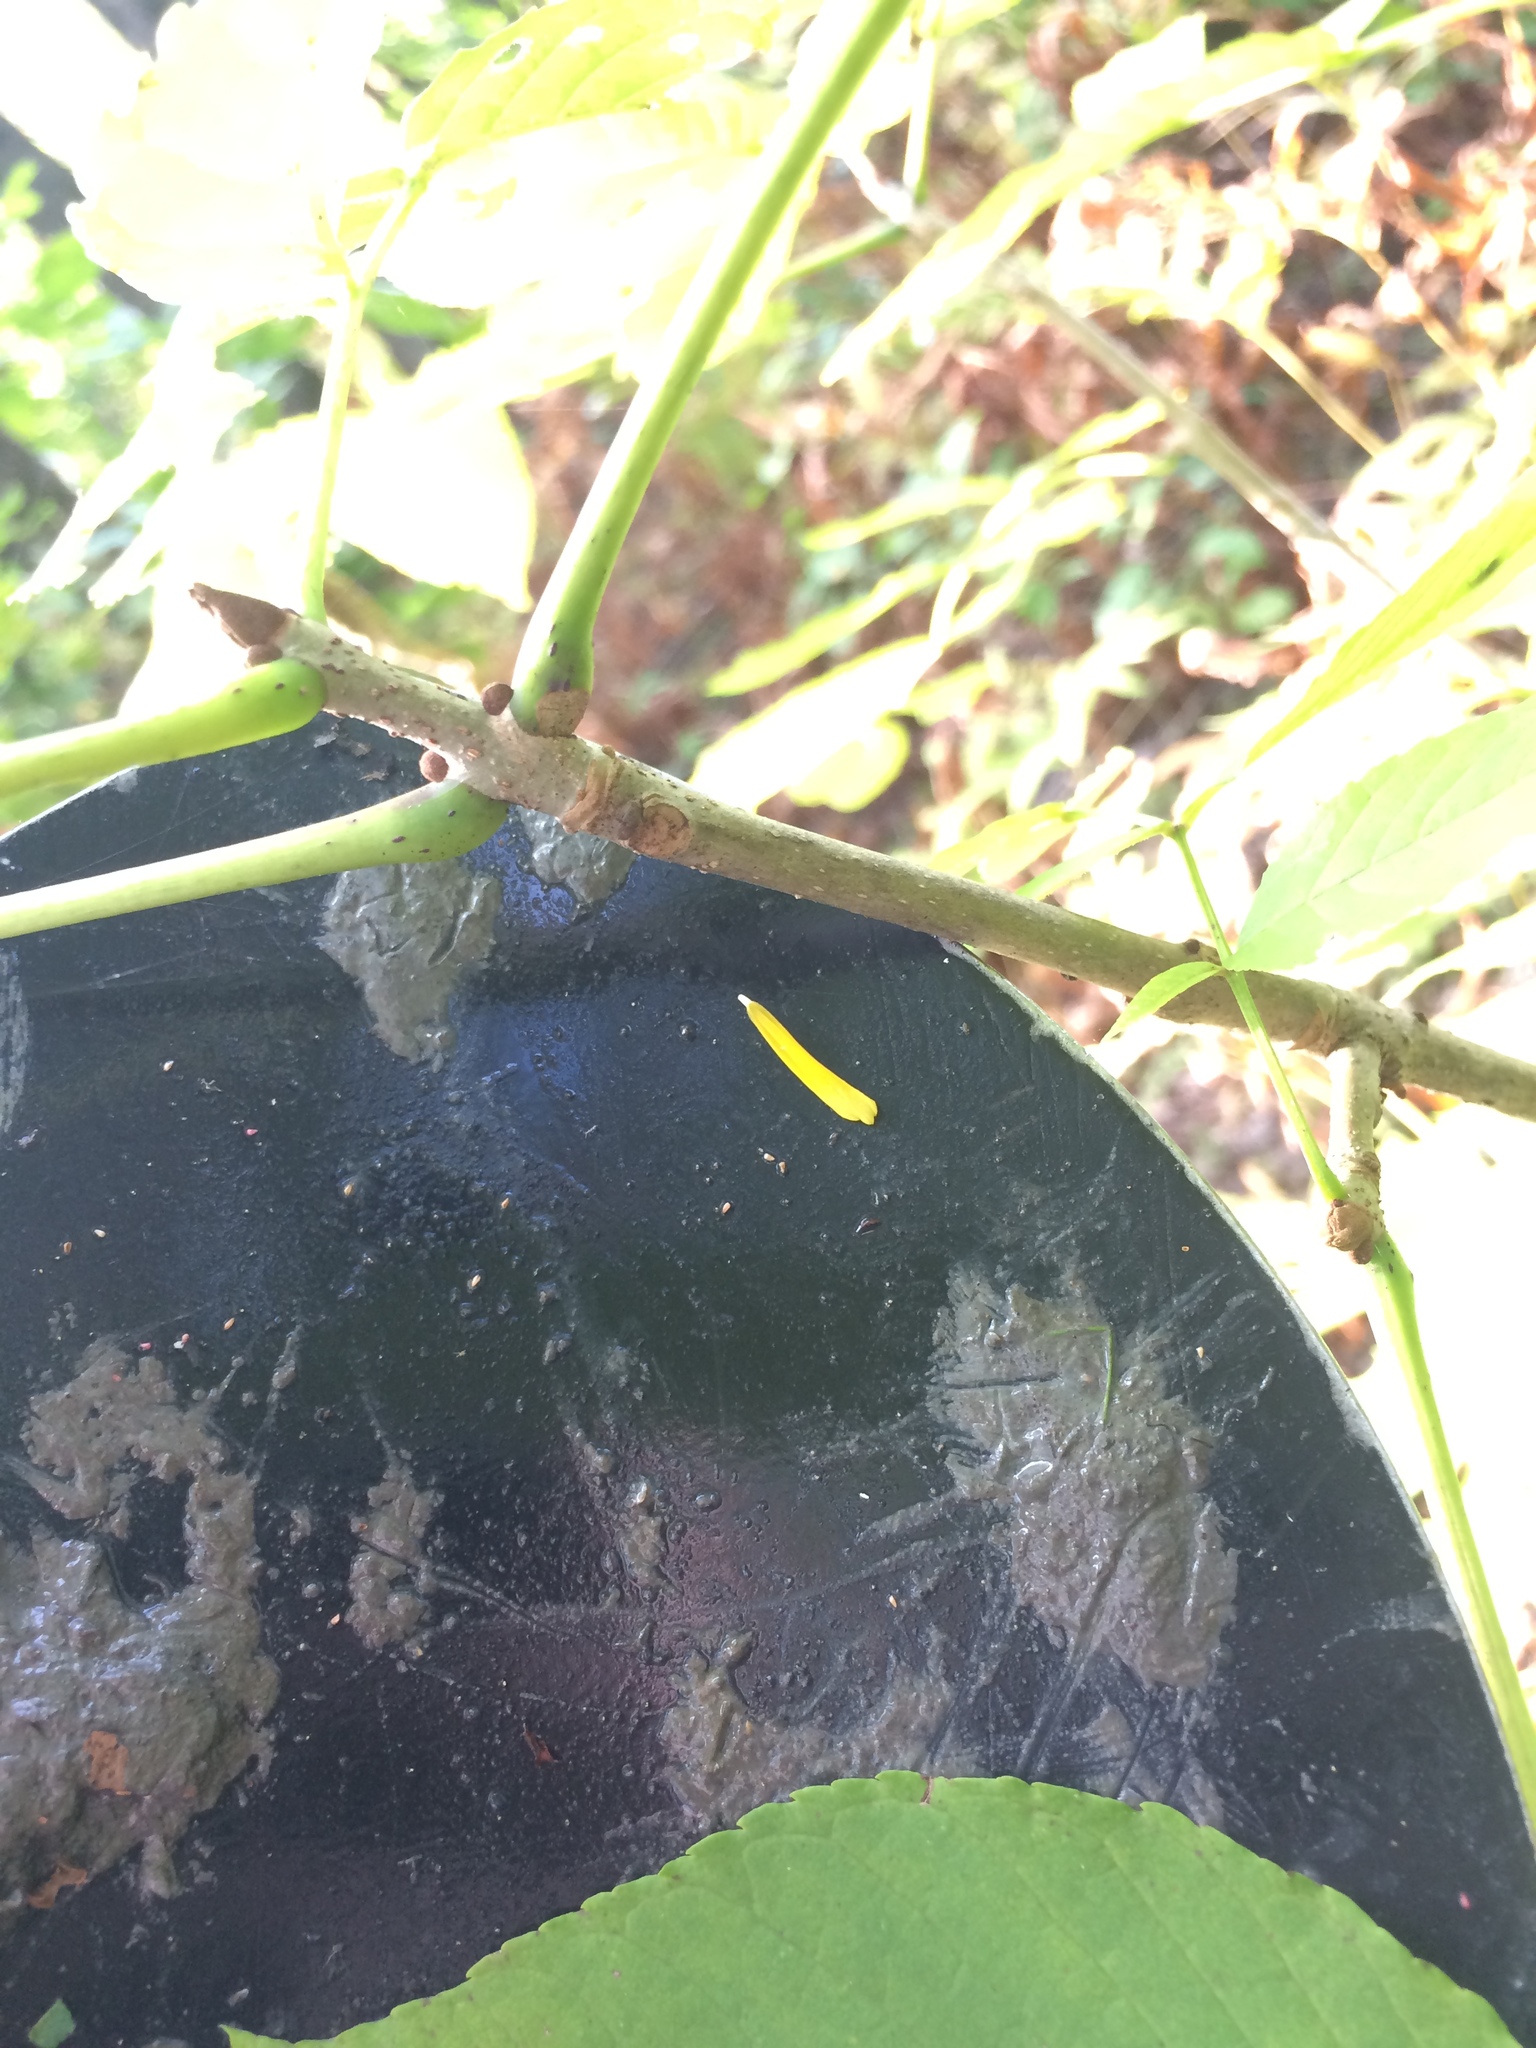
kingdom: Plantae
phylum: Tracheophyta
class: Magnoliopsida
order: Lamiales
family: Oleaceae
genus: Fraxinus
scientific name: Fraxinus nigra
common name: Black ash
